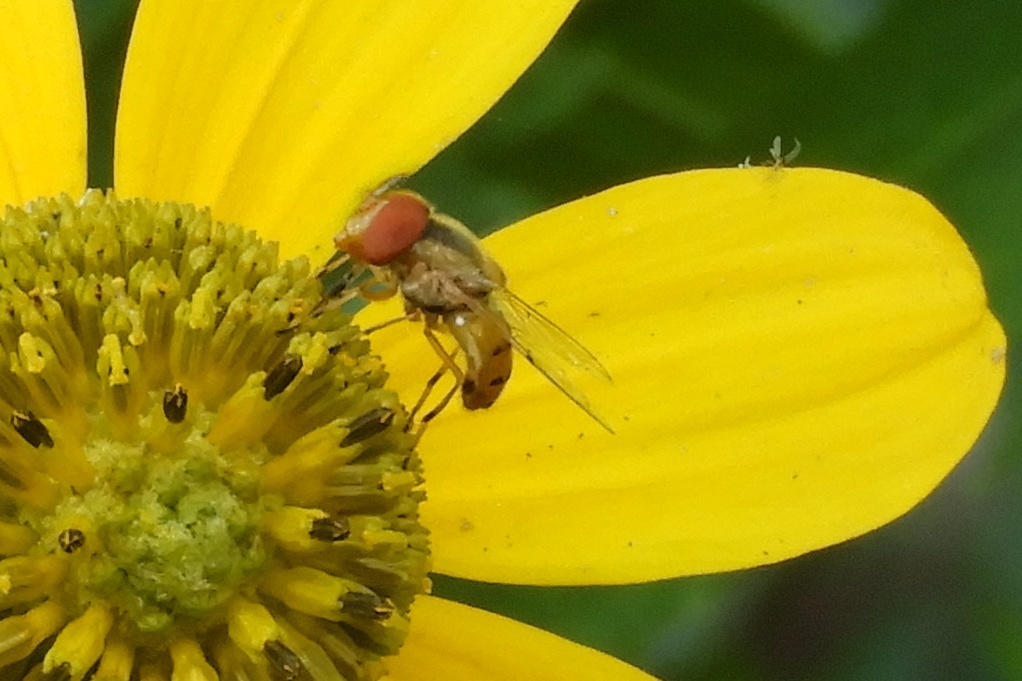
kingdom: Animalia
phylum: Arthropoda
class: Insecta
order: Diptera
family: Syrphidae
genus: Copestylum
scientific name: Copestylum sexmaculatum
